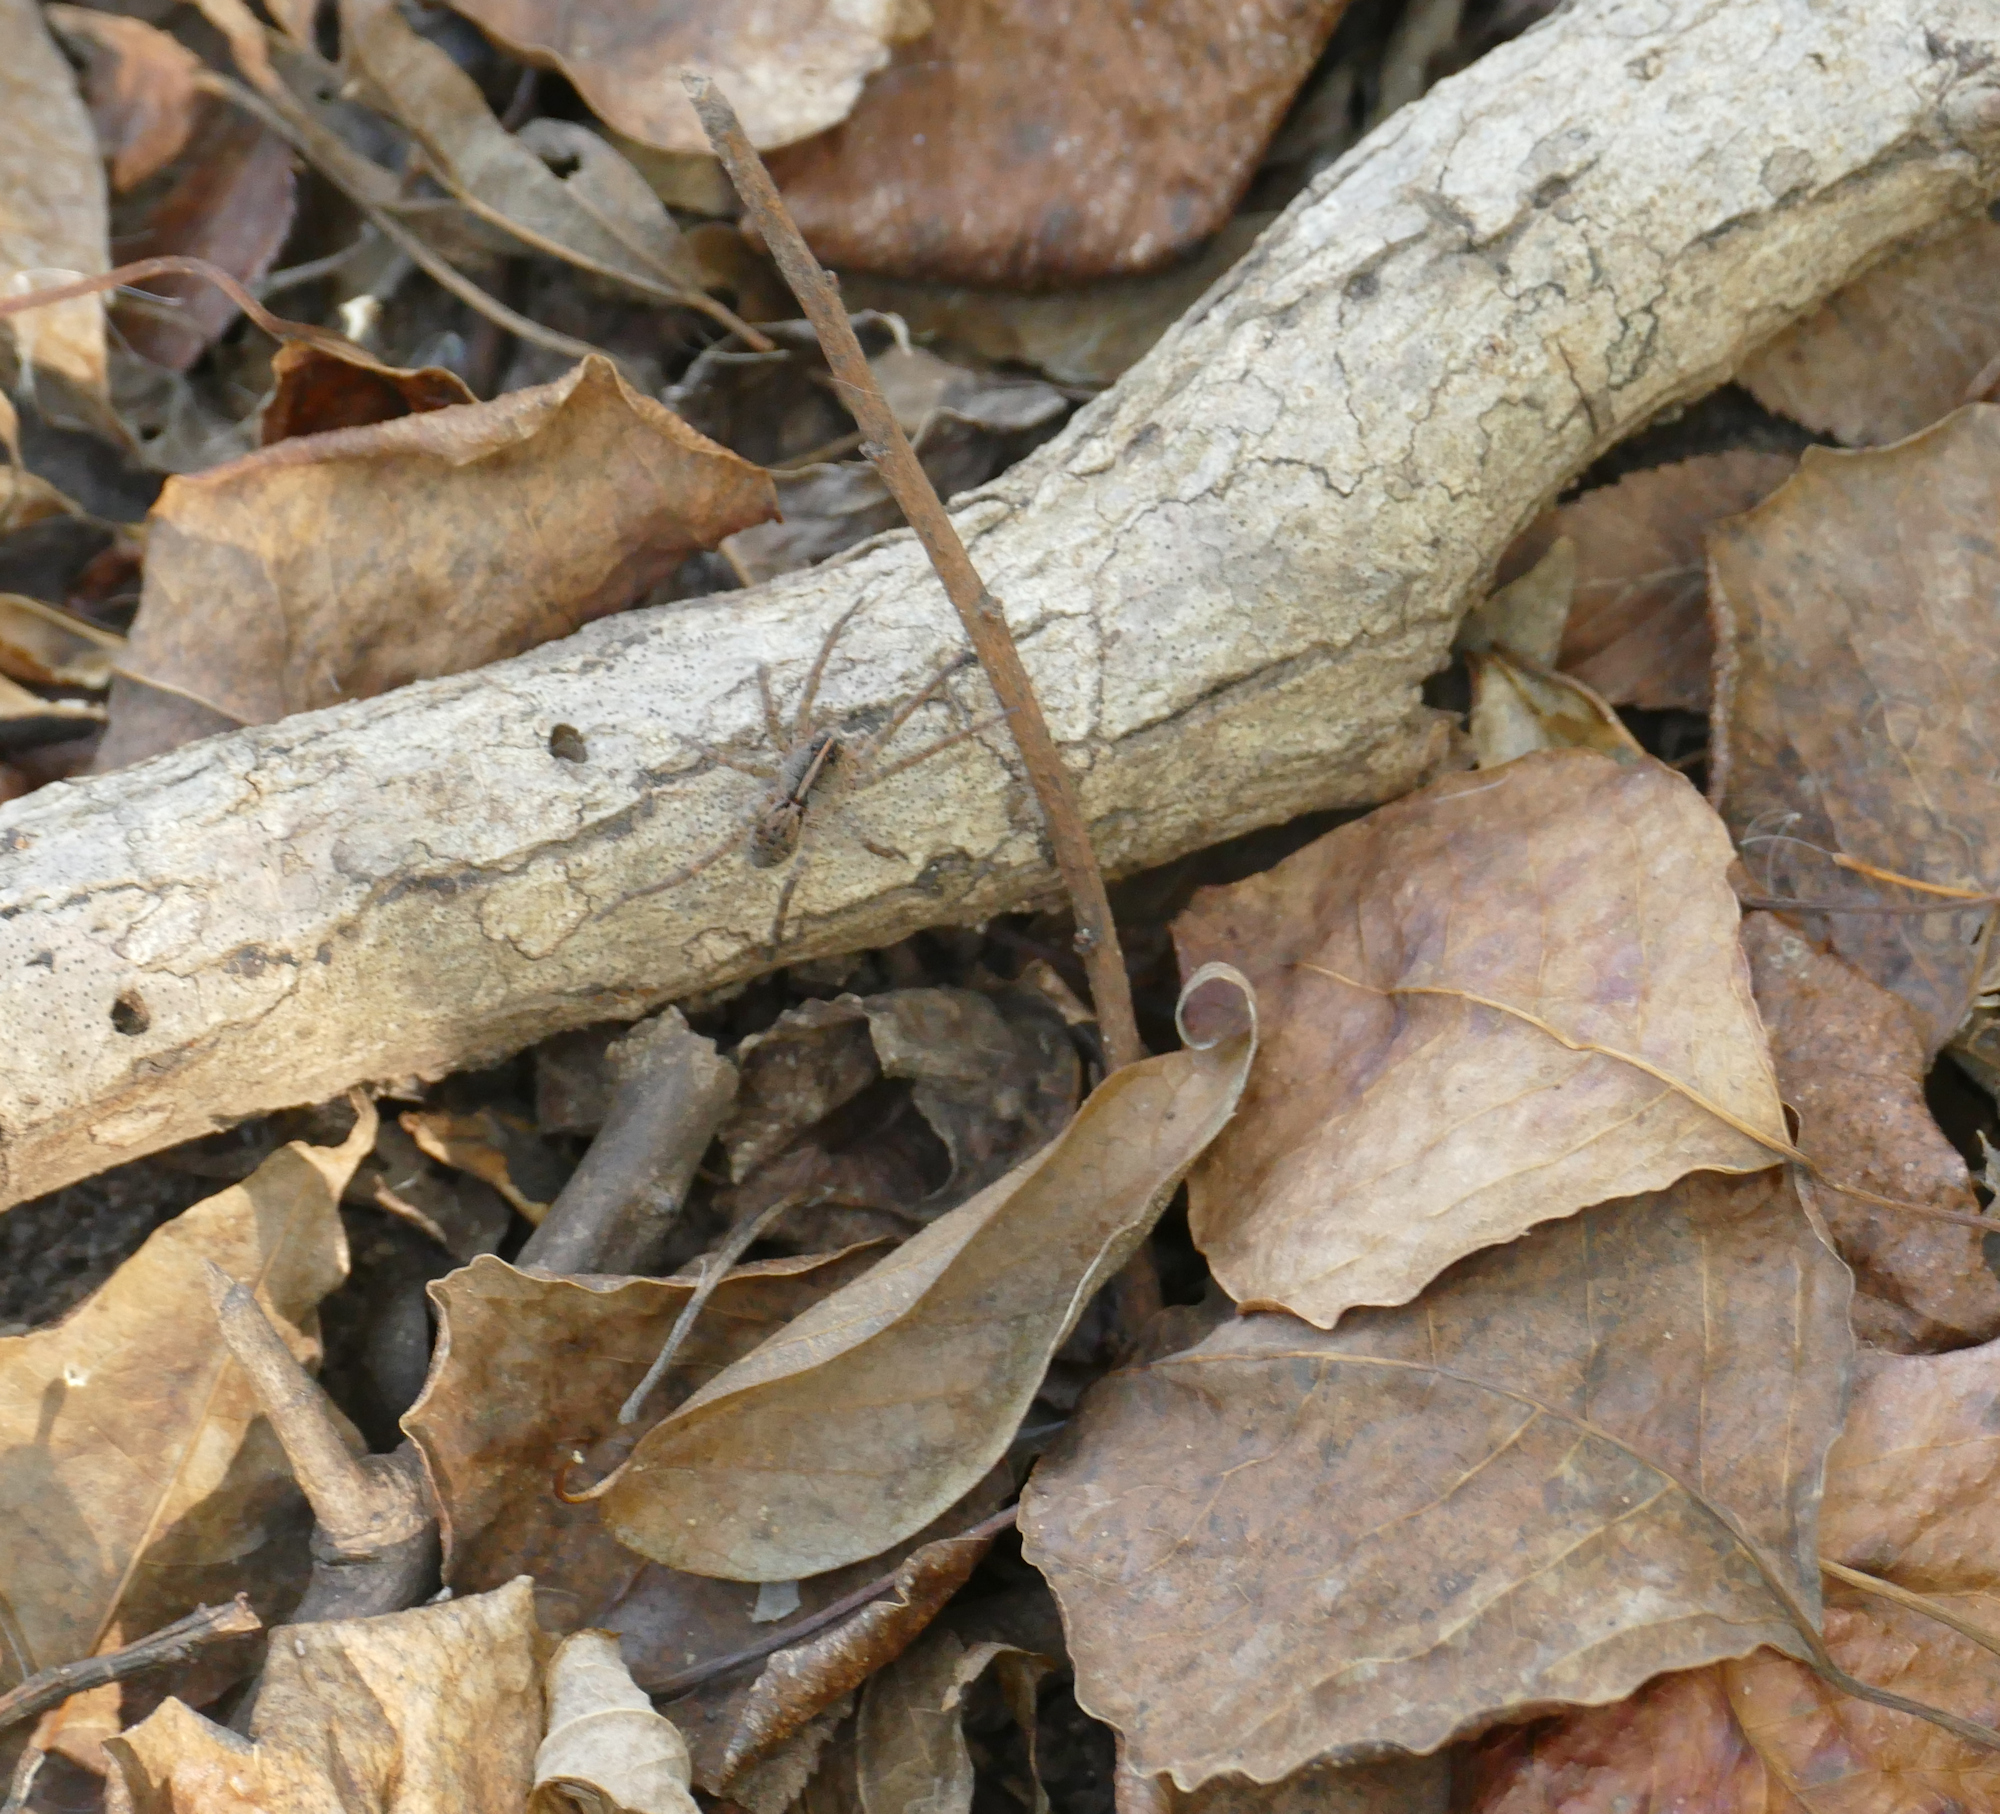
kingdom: Animalia
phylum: Arthropoda
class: Arachnida
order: Araneae
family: Lycosidae
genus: Tigrosa
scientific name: Tigrosa georgicola
